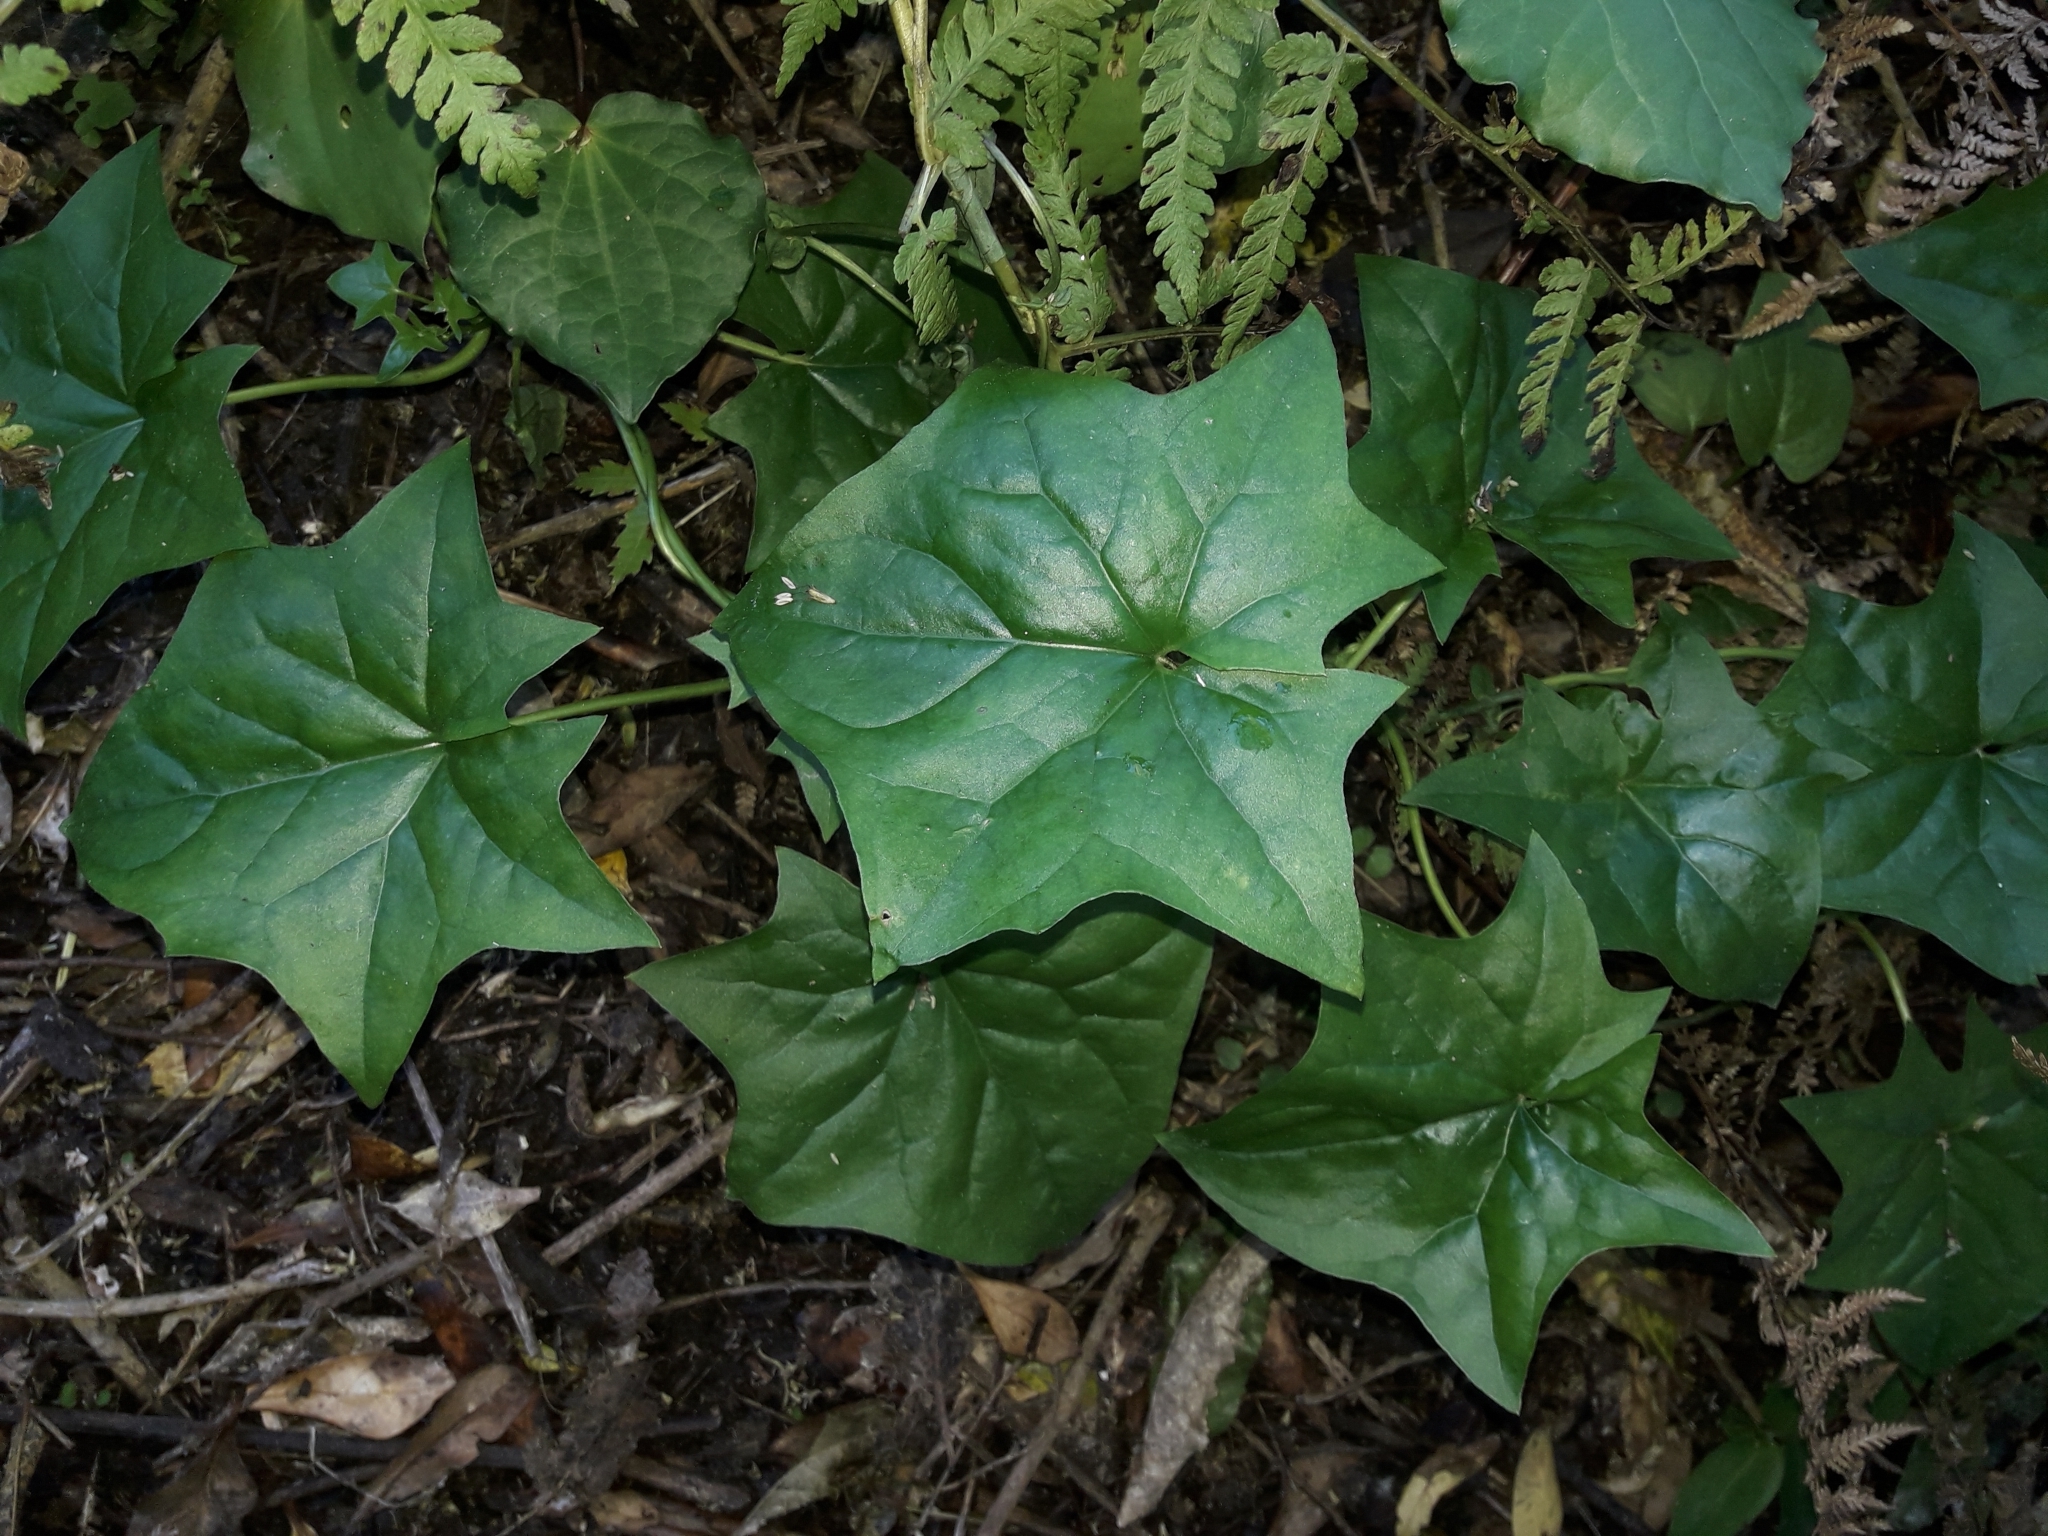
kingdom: Plantae
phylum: Tracheophyta
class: Magnoliopsida
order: Asterales
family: Asteraceae
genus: Delairea
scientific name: Delairea odorata
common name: Cape-ivy
